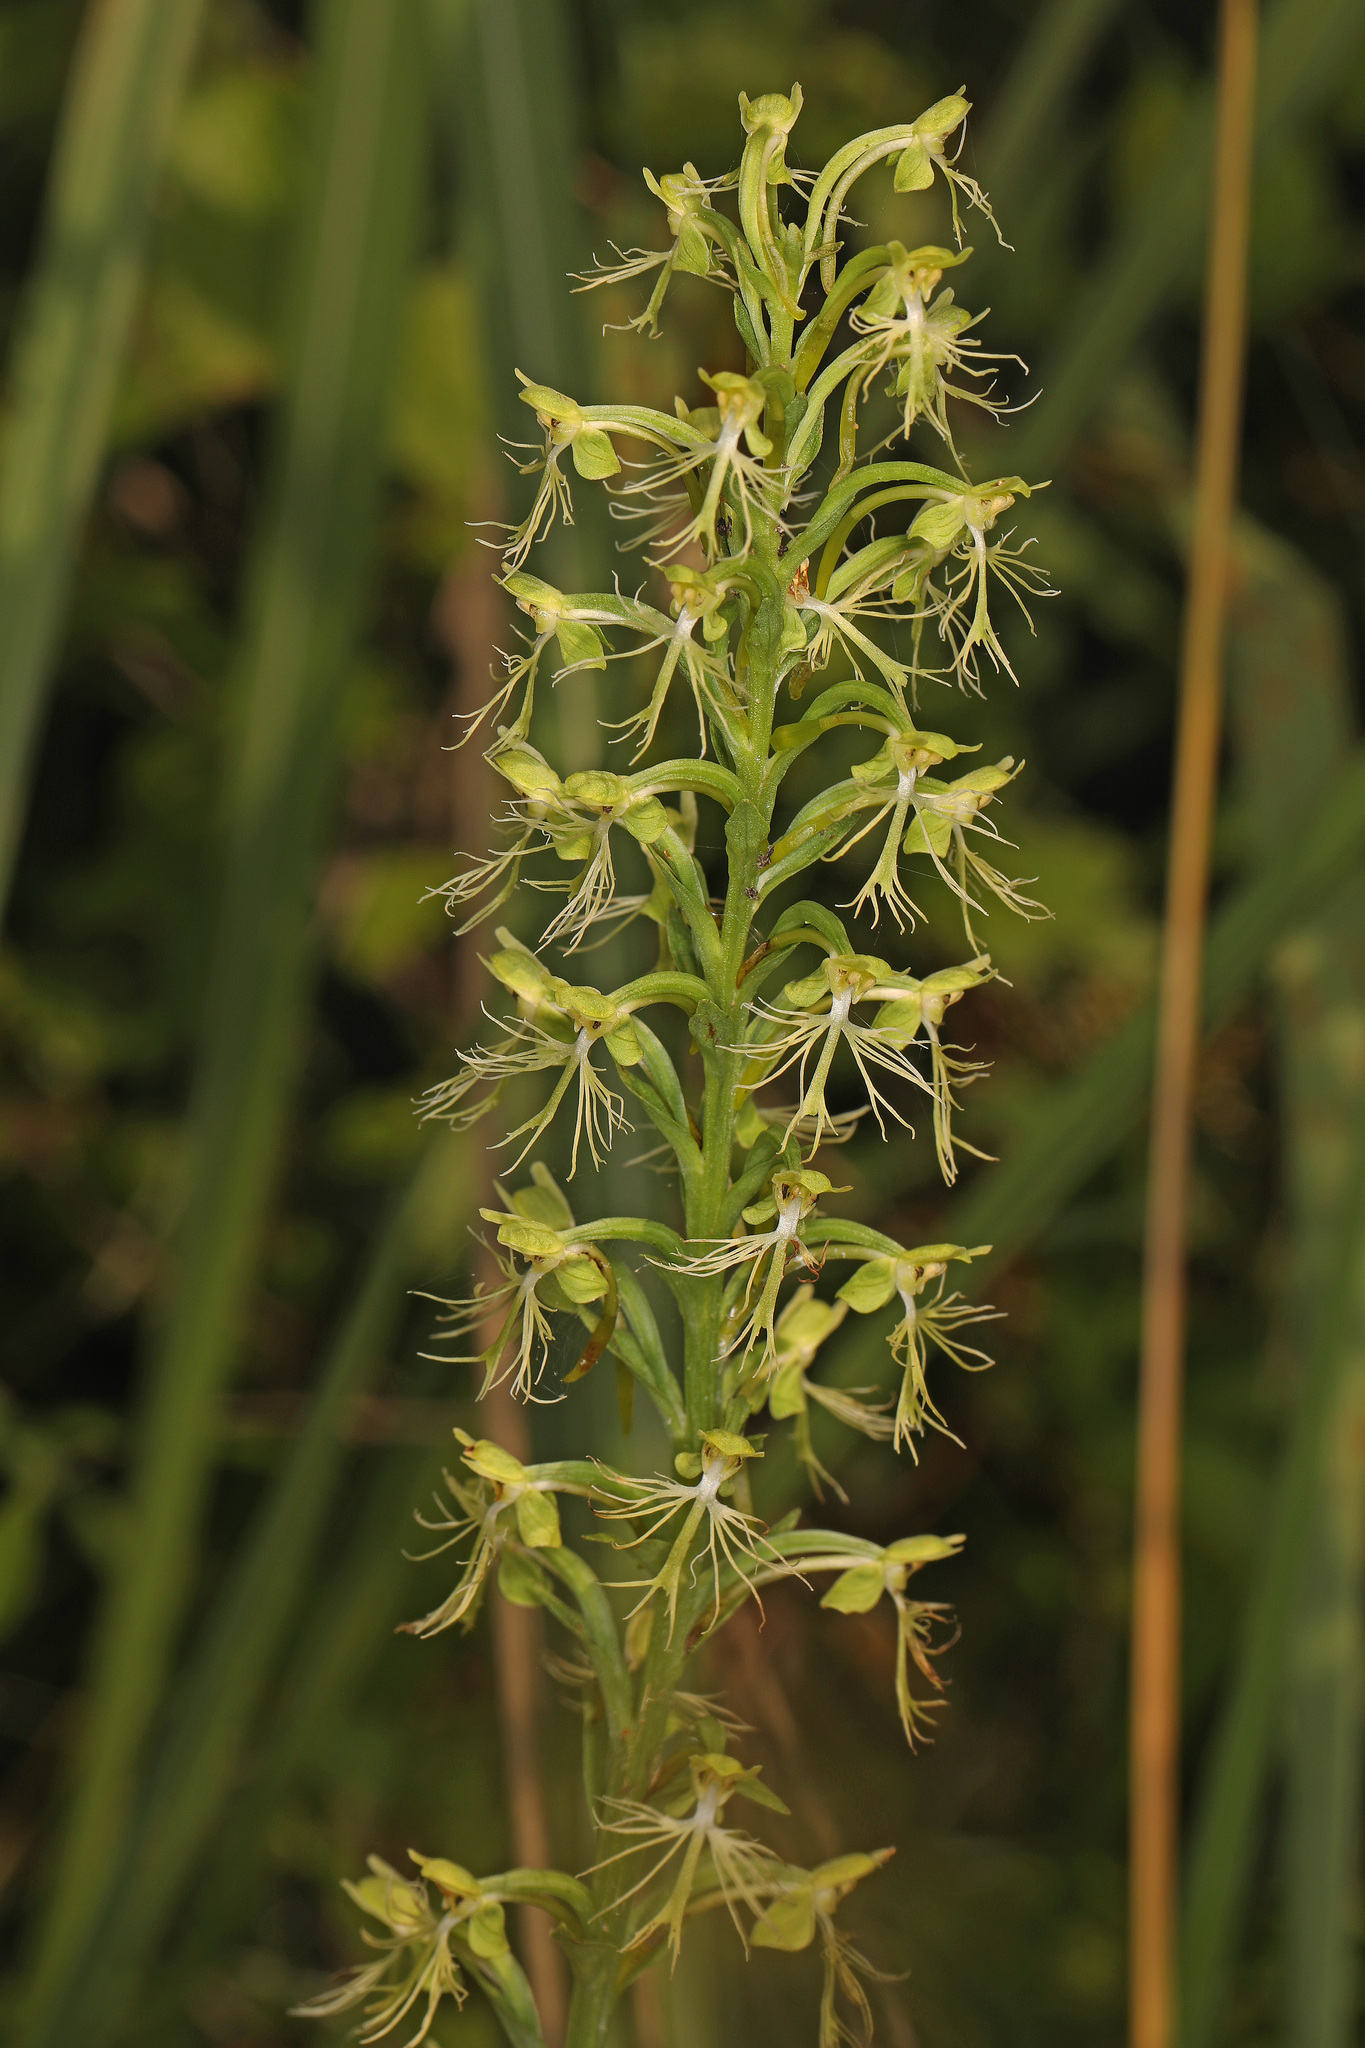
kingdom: Plantae
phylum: Tracheophyta
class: Liliopsida
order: Asparagales
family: Orchidaceae
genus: Platanthera
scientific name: Platanthera lacera
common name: Green fringed orchid
